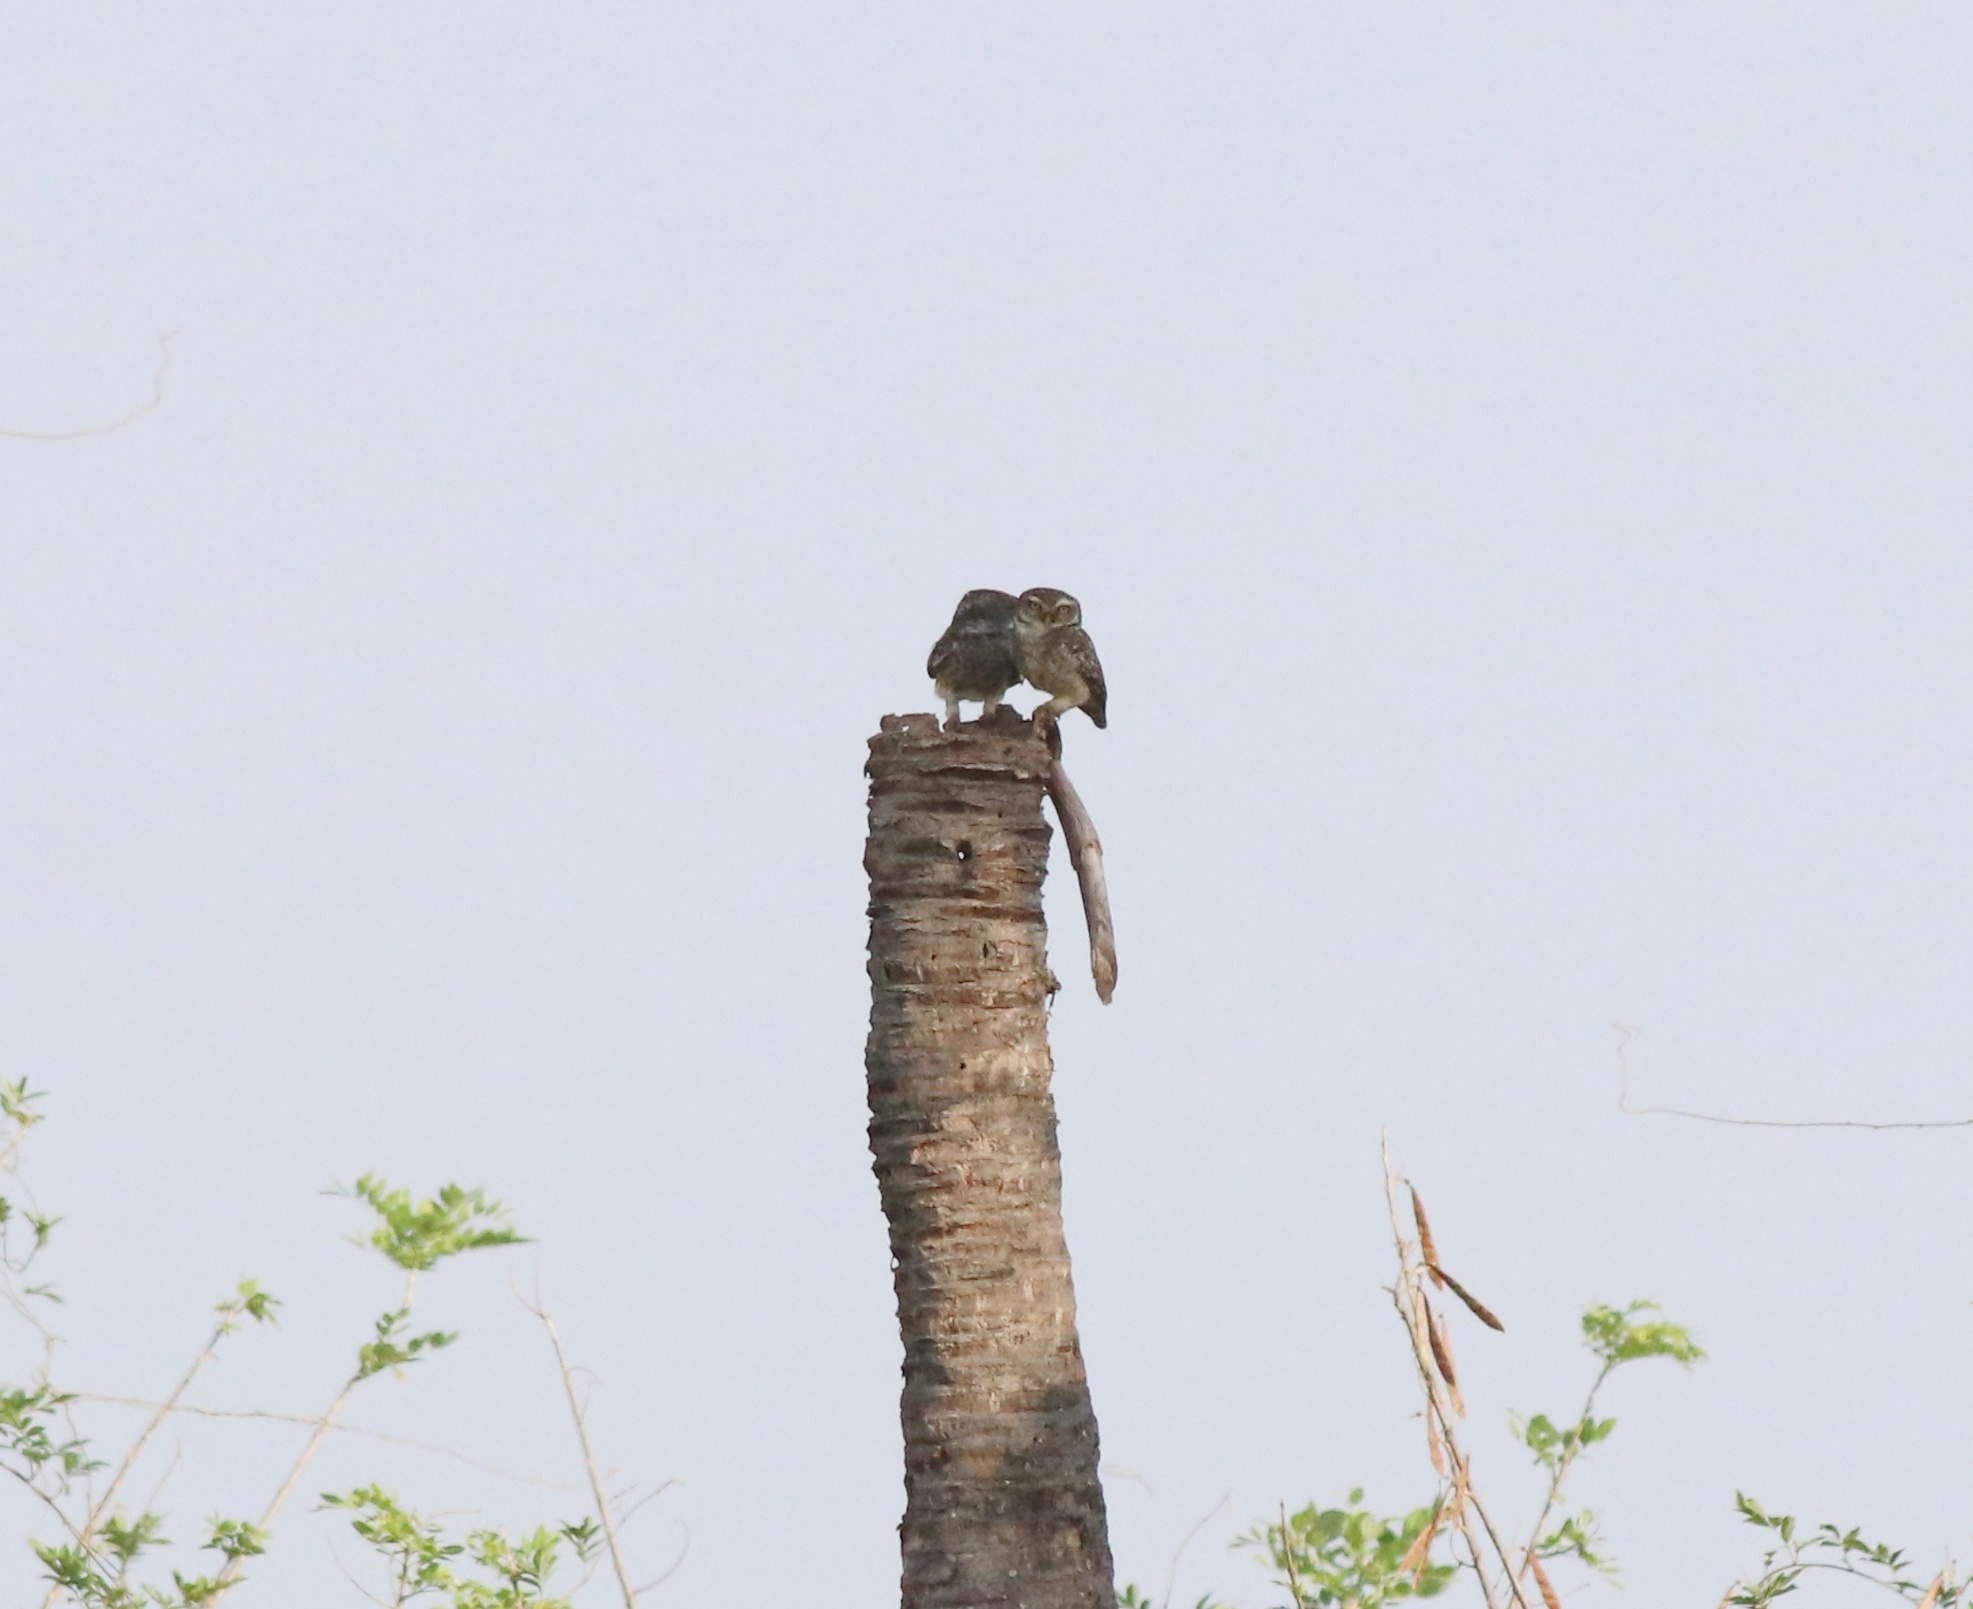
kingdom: Animalia
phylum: Chordata
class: Aves
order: Strigiformes
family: Strigidae
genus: Athene
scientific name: Athene brama
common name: Spotted owlet
